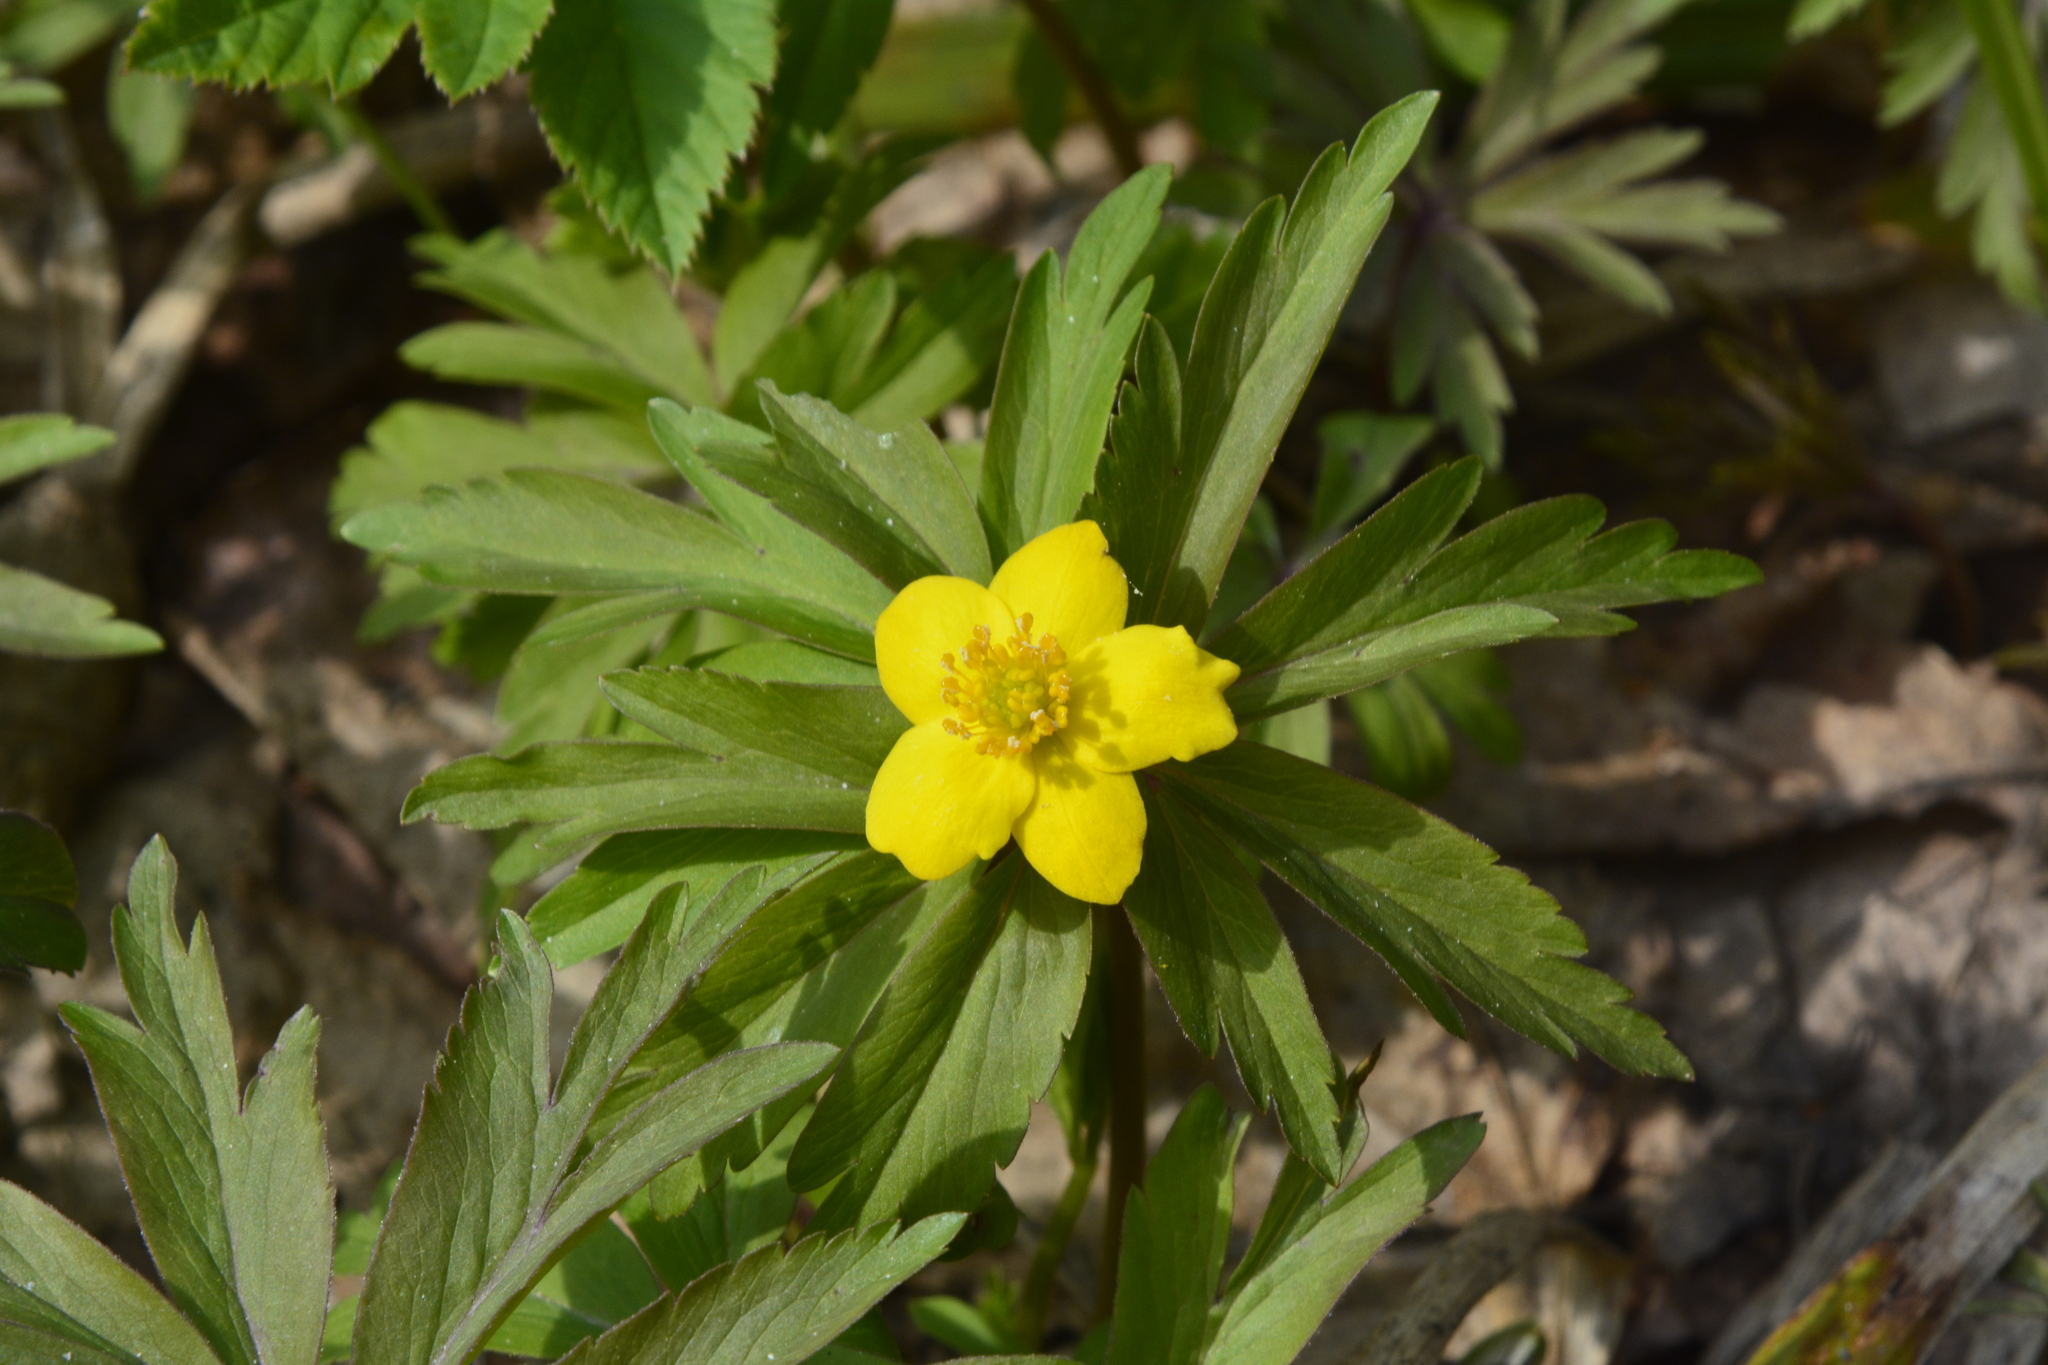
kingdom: Plantae
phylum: Tracheophyta
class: Magnoliopsida
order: Ranunculales
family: Ranunculaceae
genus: Anemone
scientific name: Anemone ranunculoides
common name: Yellow anemone
